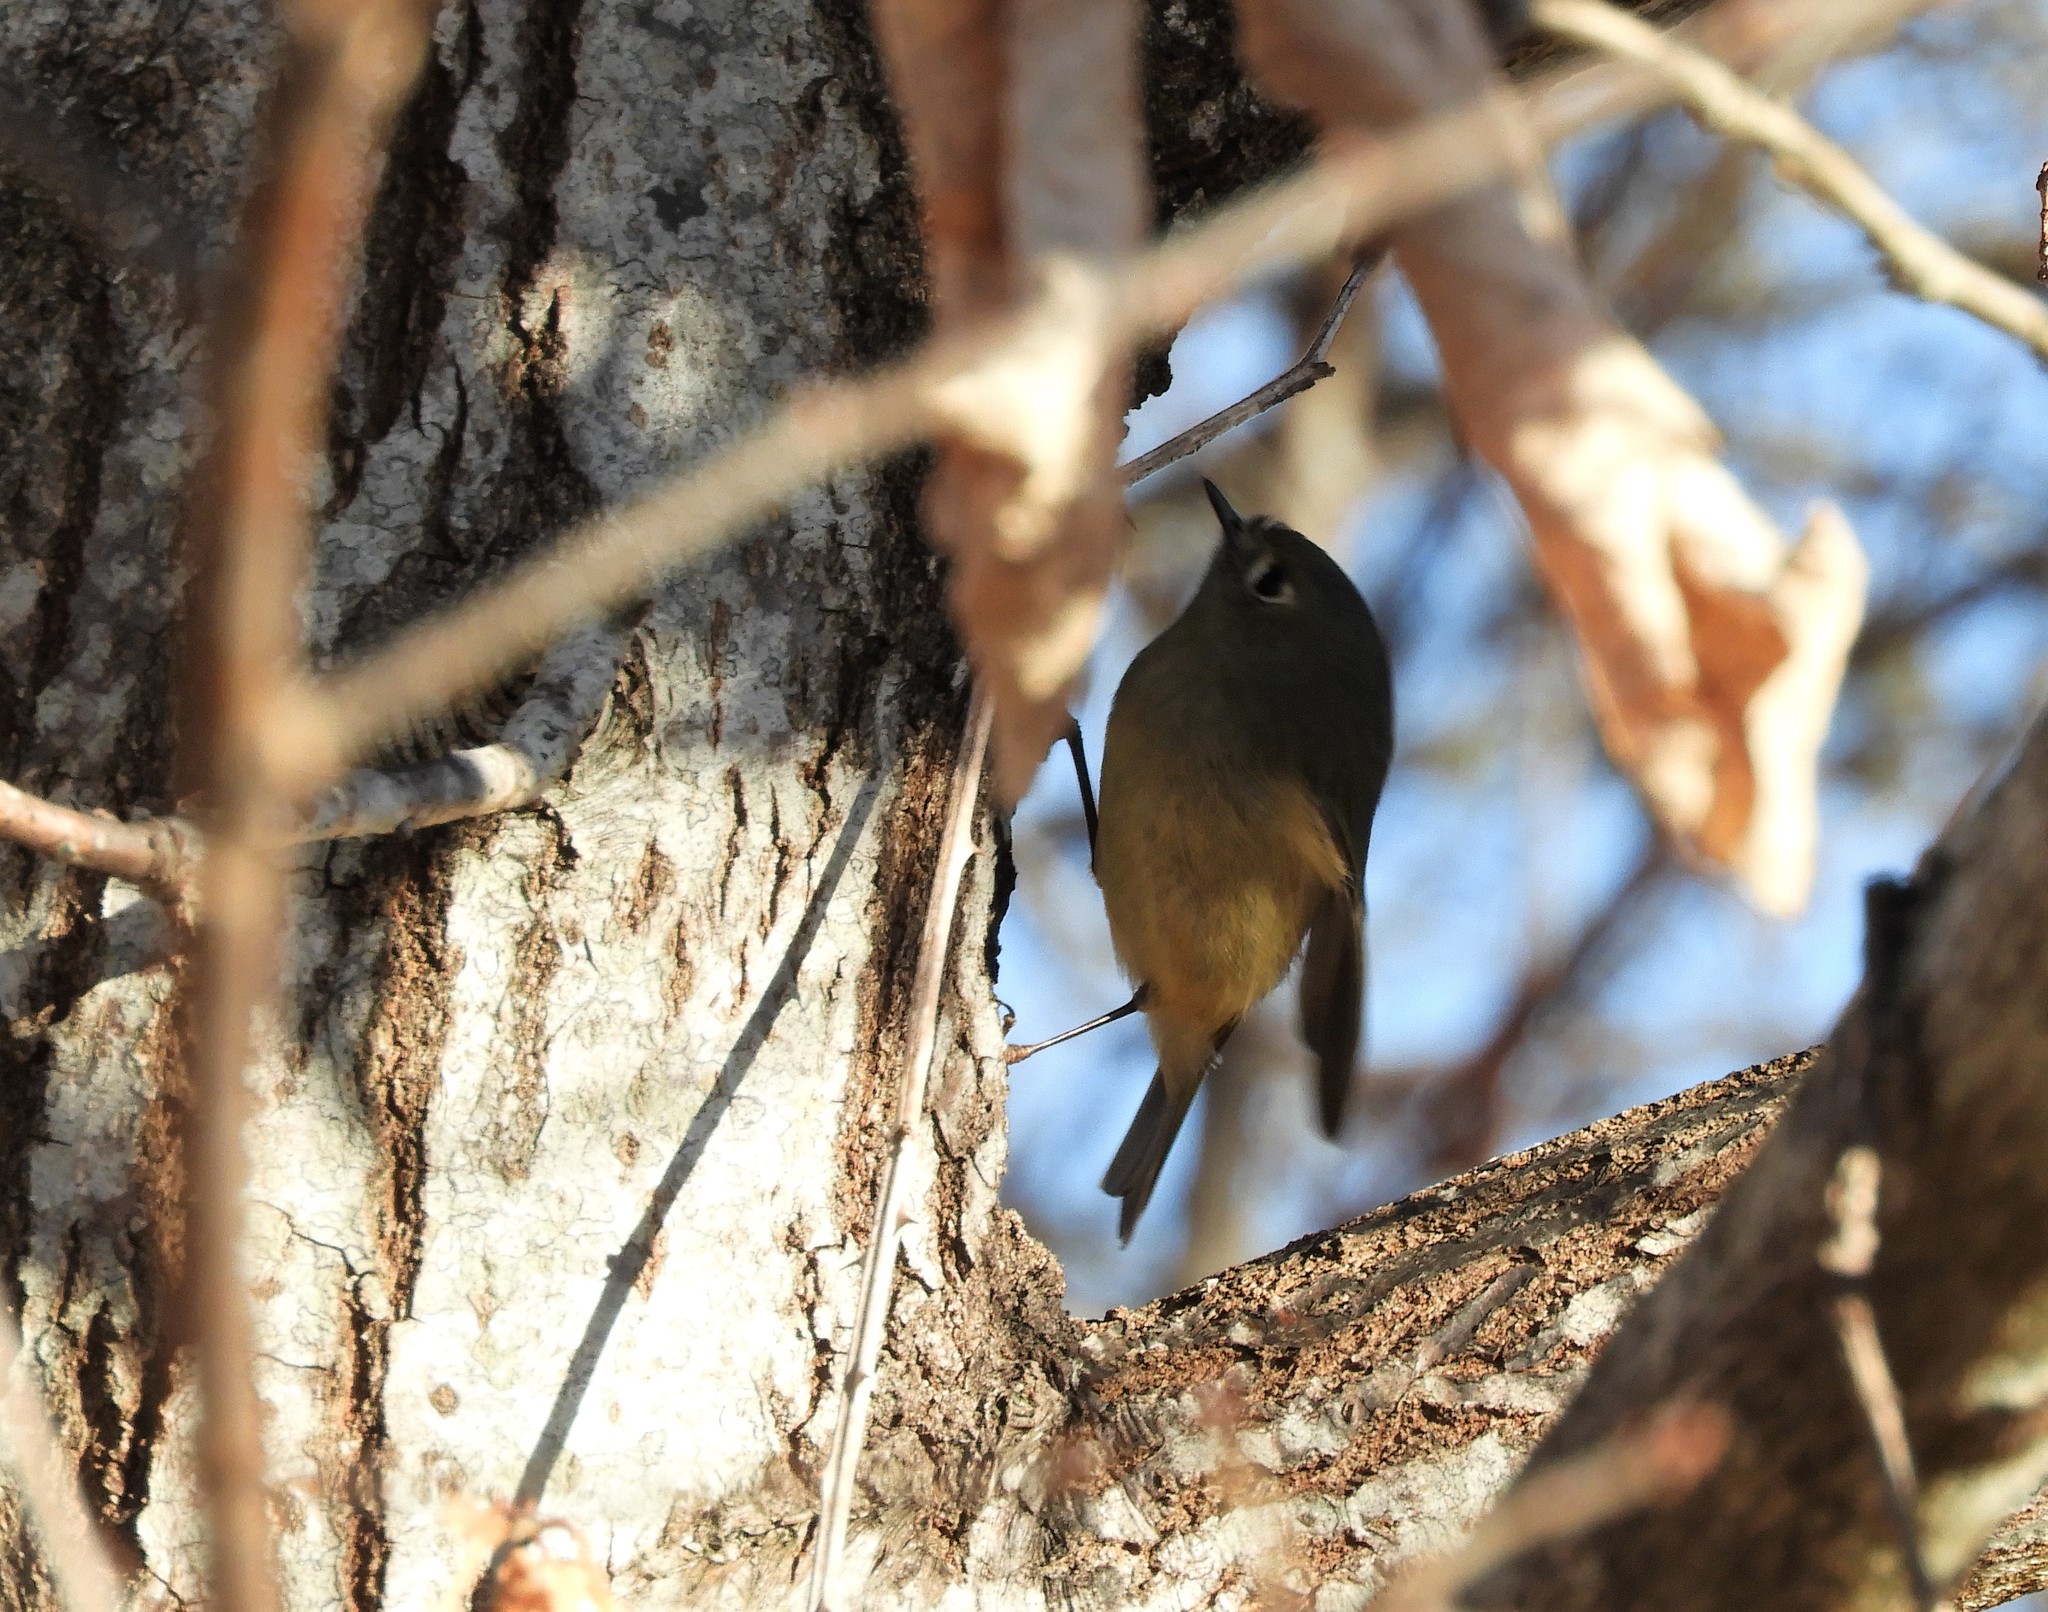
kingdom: Animalia
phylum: Chordata
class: Aves
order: Passeriformes
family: Regulidae
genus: Regulus
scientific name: Regulus calendula
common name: Ruby-crowned kinglet
